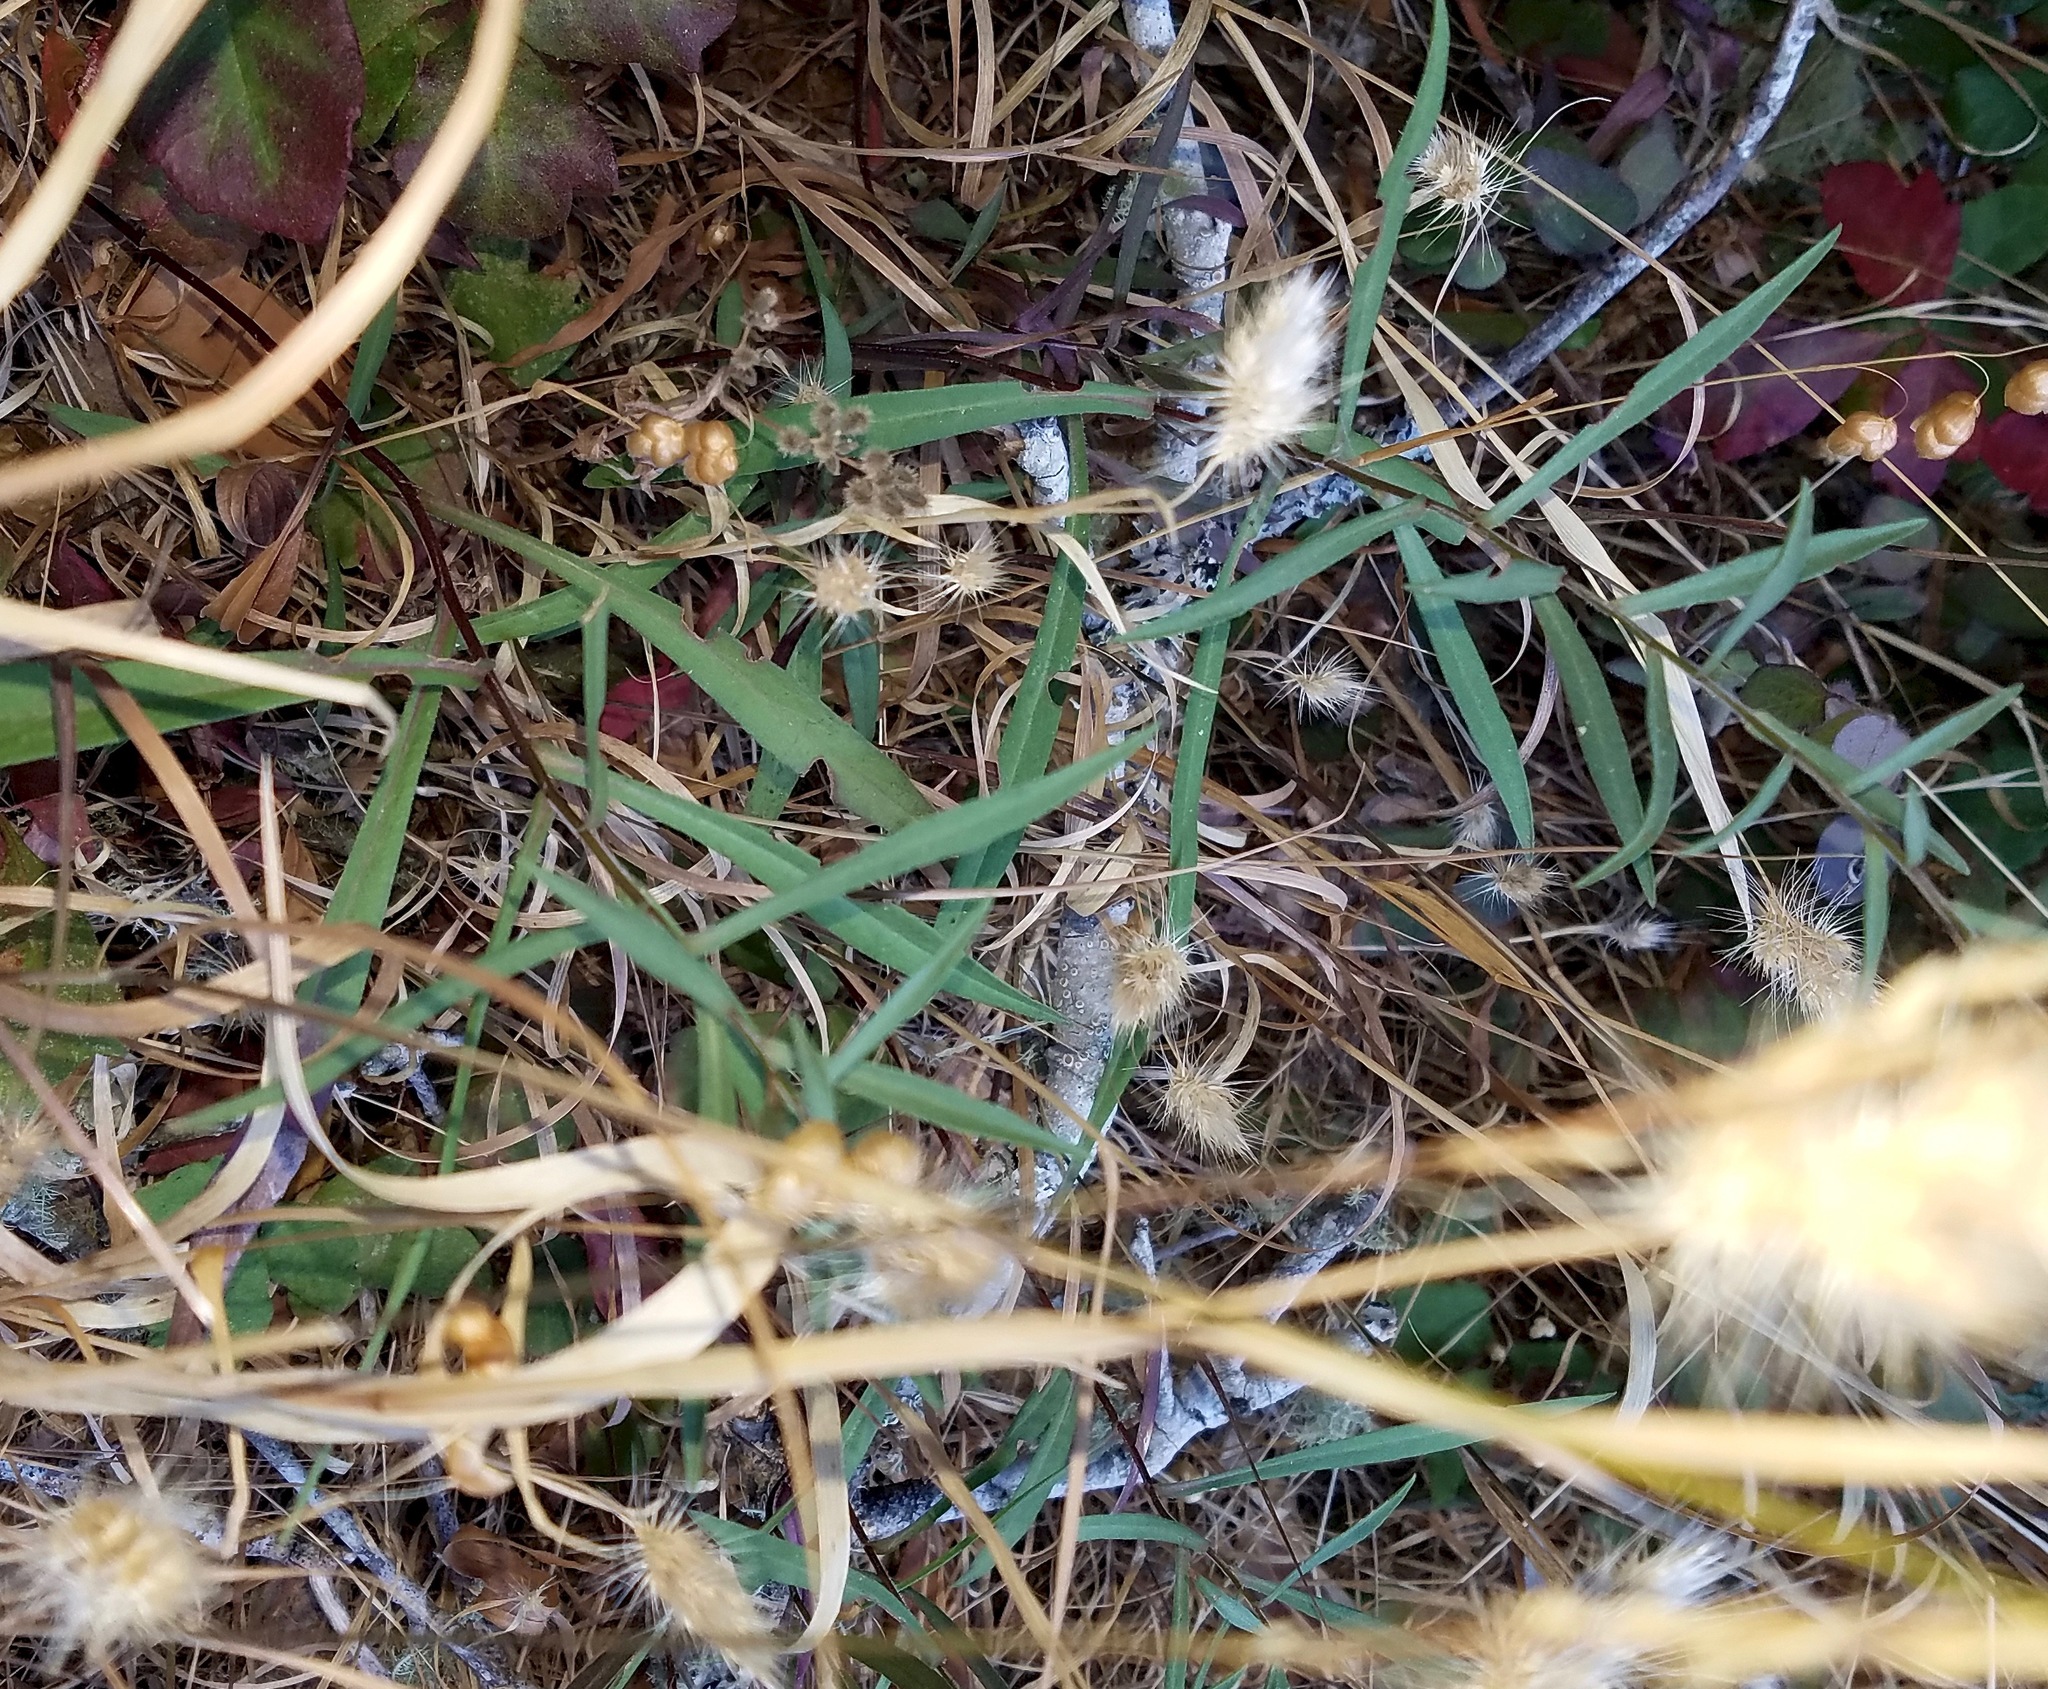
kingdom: Plantae
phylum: Tracheophyta
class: Magnoliopsida
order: Gentianales
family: Apocynaceae
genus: Asclepias
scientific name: Asclepias fascicularis
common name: Mexican milkweed
